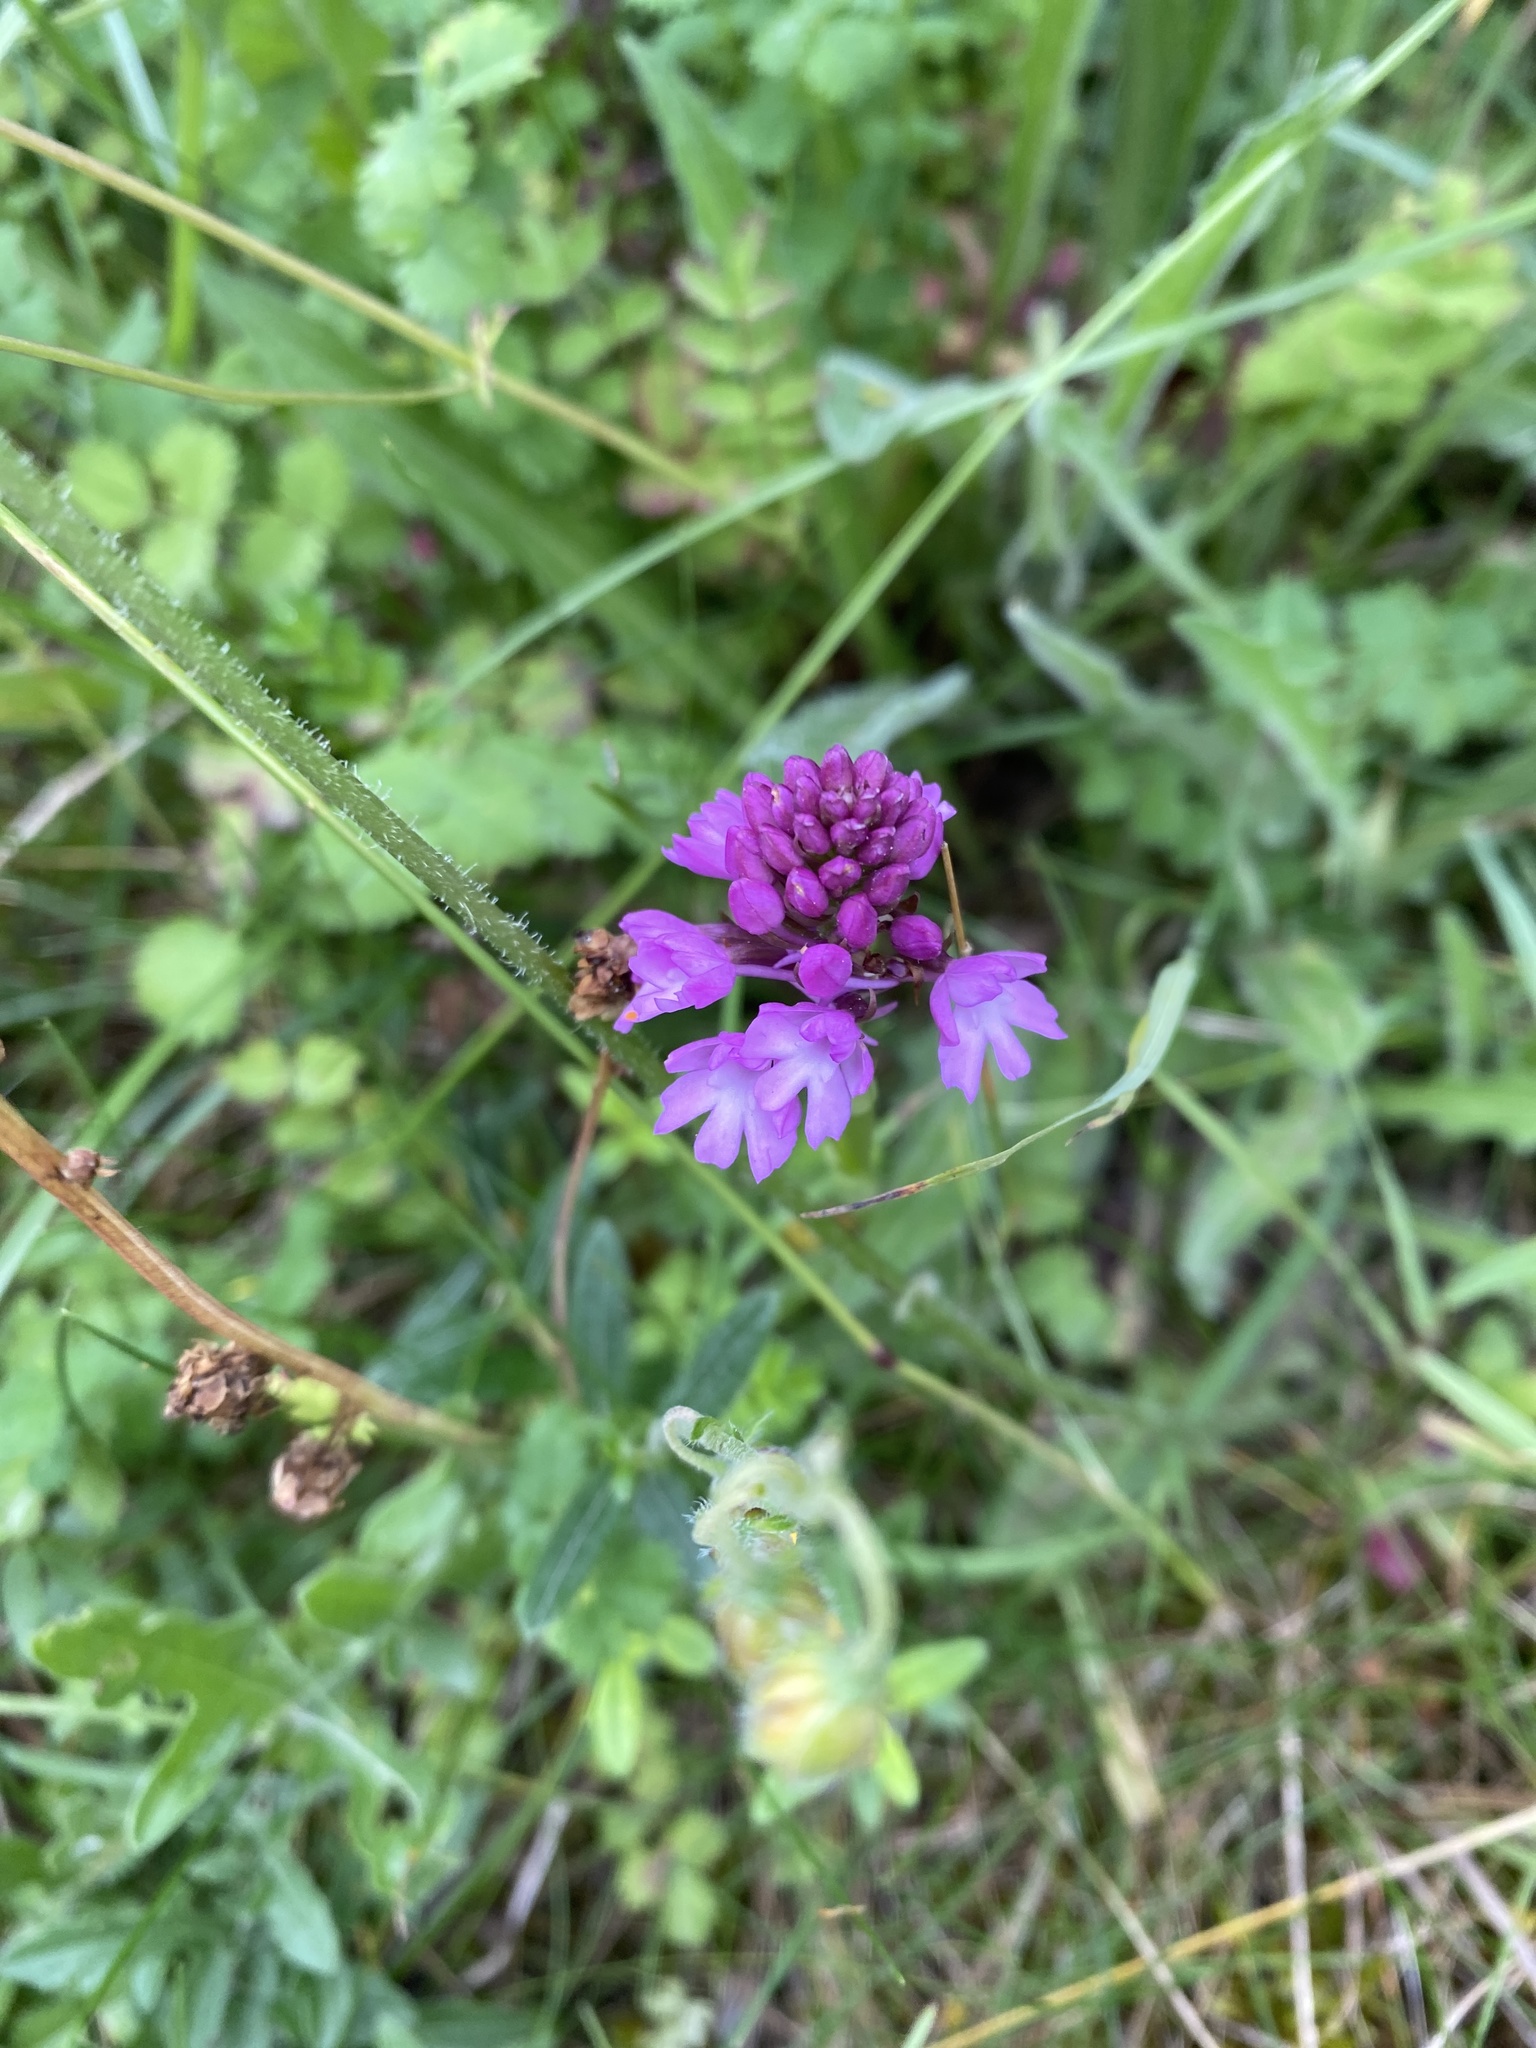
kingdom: Plantae
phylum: Tracheophyta
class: Liliopsida
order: Asparagales
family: Orchidaceae
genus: Anacamptis
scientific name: Anacamptis pyramidalis
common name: Pyramidal orchid
